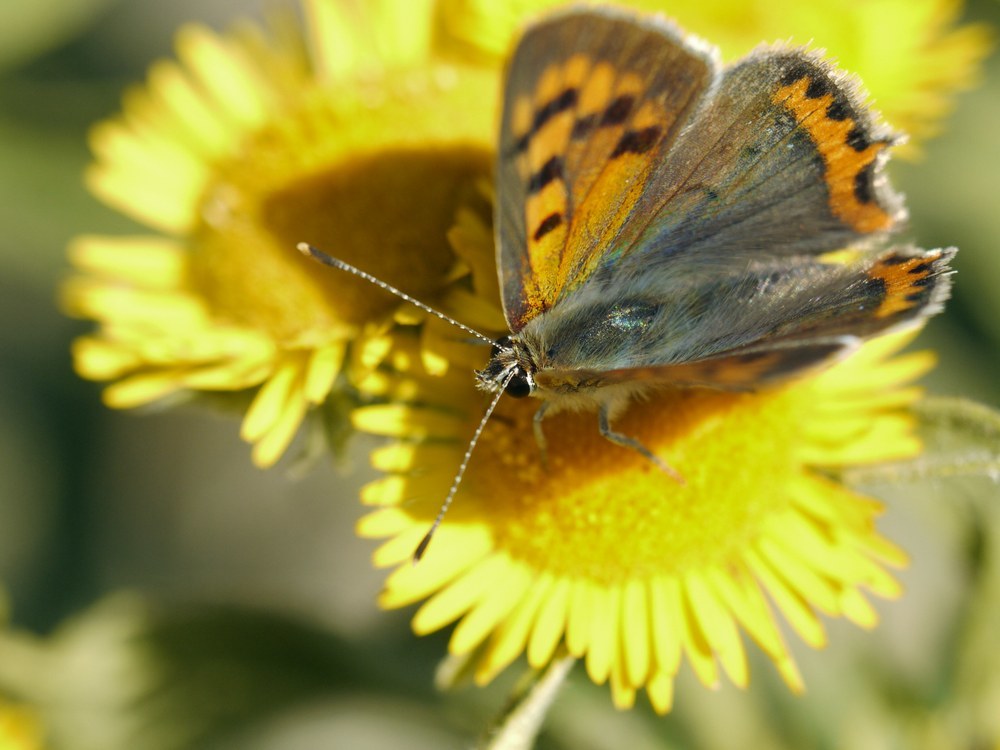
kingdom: Animalia
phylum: Arthropoda
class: Insecta
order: Lepidoptera
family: Lycaenidae
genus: Lycaena
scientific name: Lycaena phlaeas
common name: Small copper
